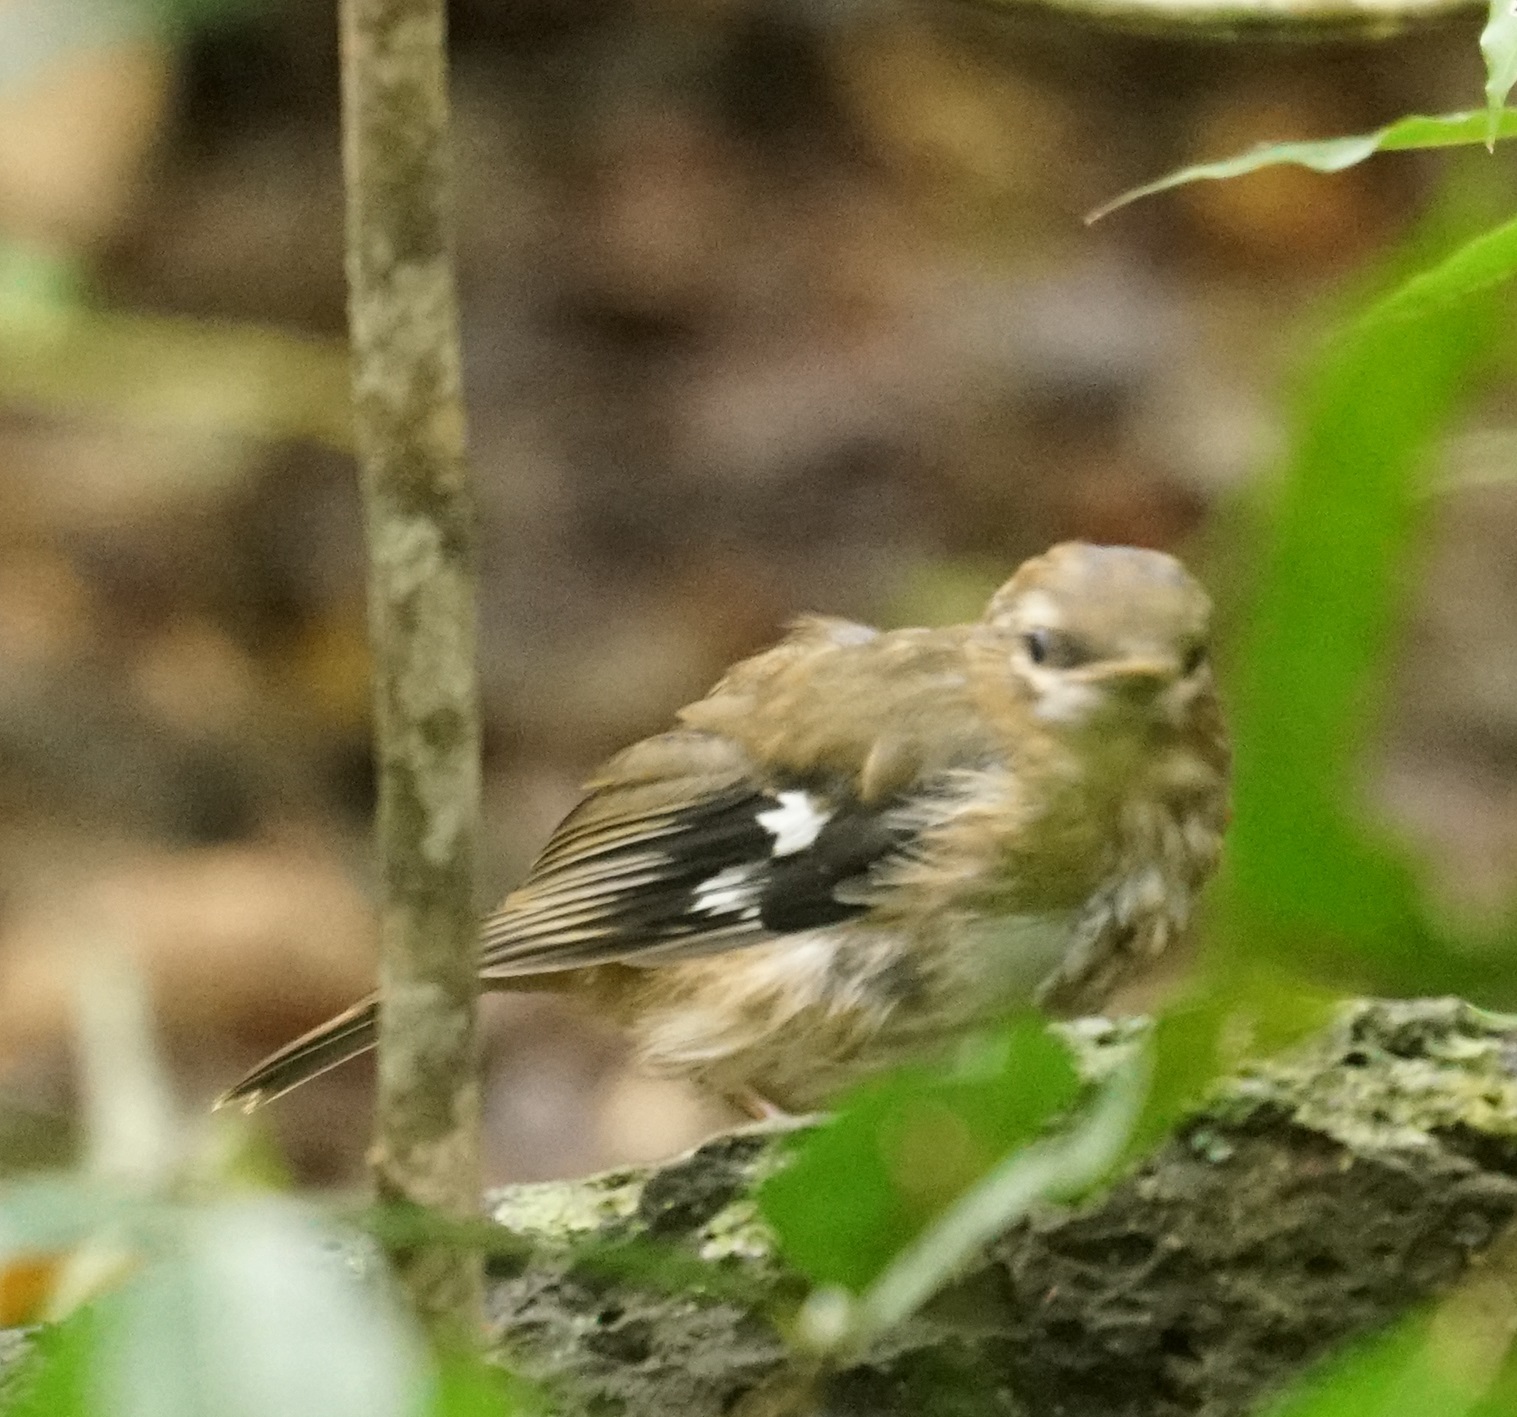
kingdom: Animalia
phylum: Chordata
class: Aves
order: Passeriformes
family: Petroicidae
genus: Heteromyias
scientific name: Heteromyias cinereifrons
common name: Grey-headed robin
